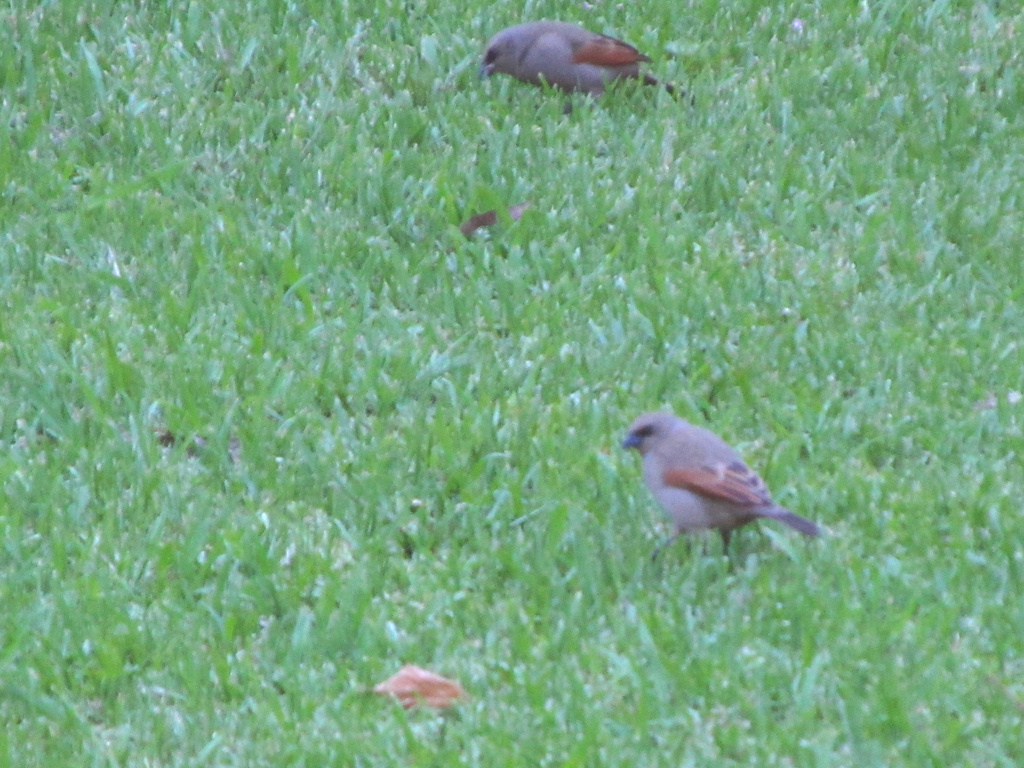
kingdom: Animalia
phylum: Chordata
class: Aves
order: Passeriformes
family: Icteridae
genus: Agelaioides
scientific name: Agelaioides badius
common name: Baywing
